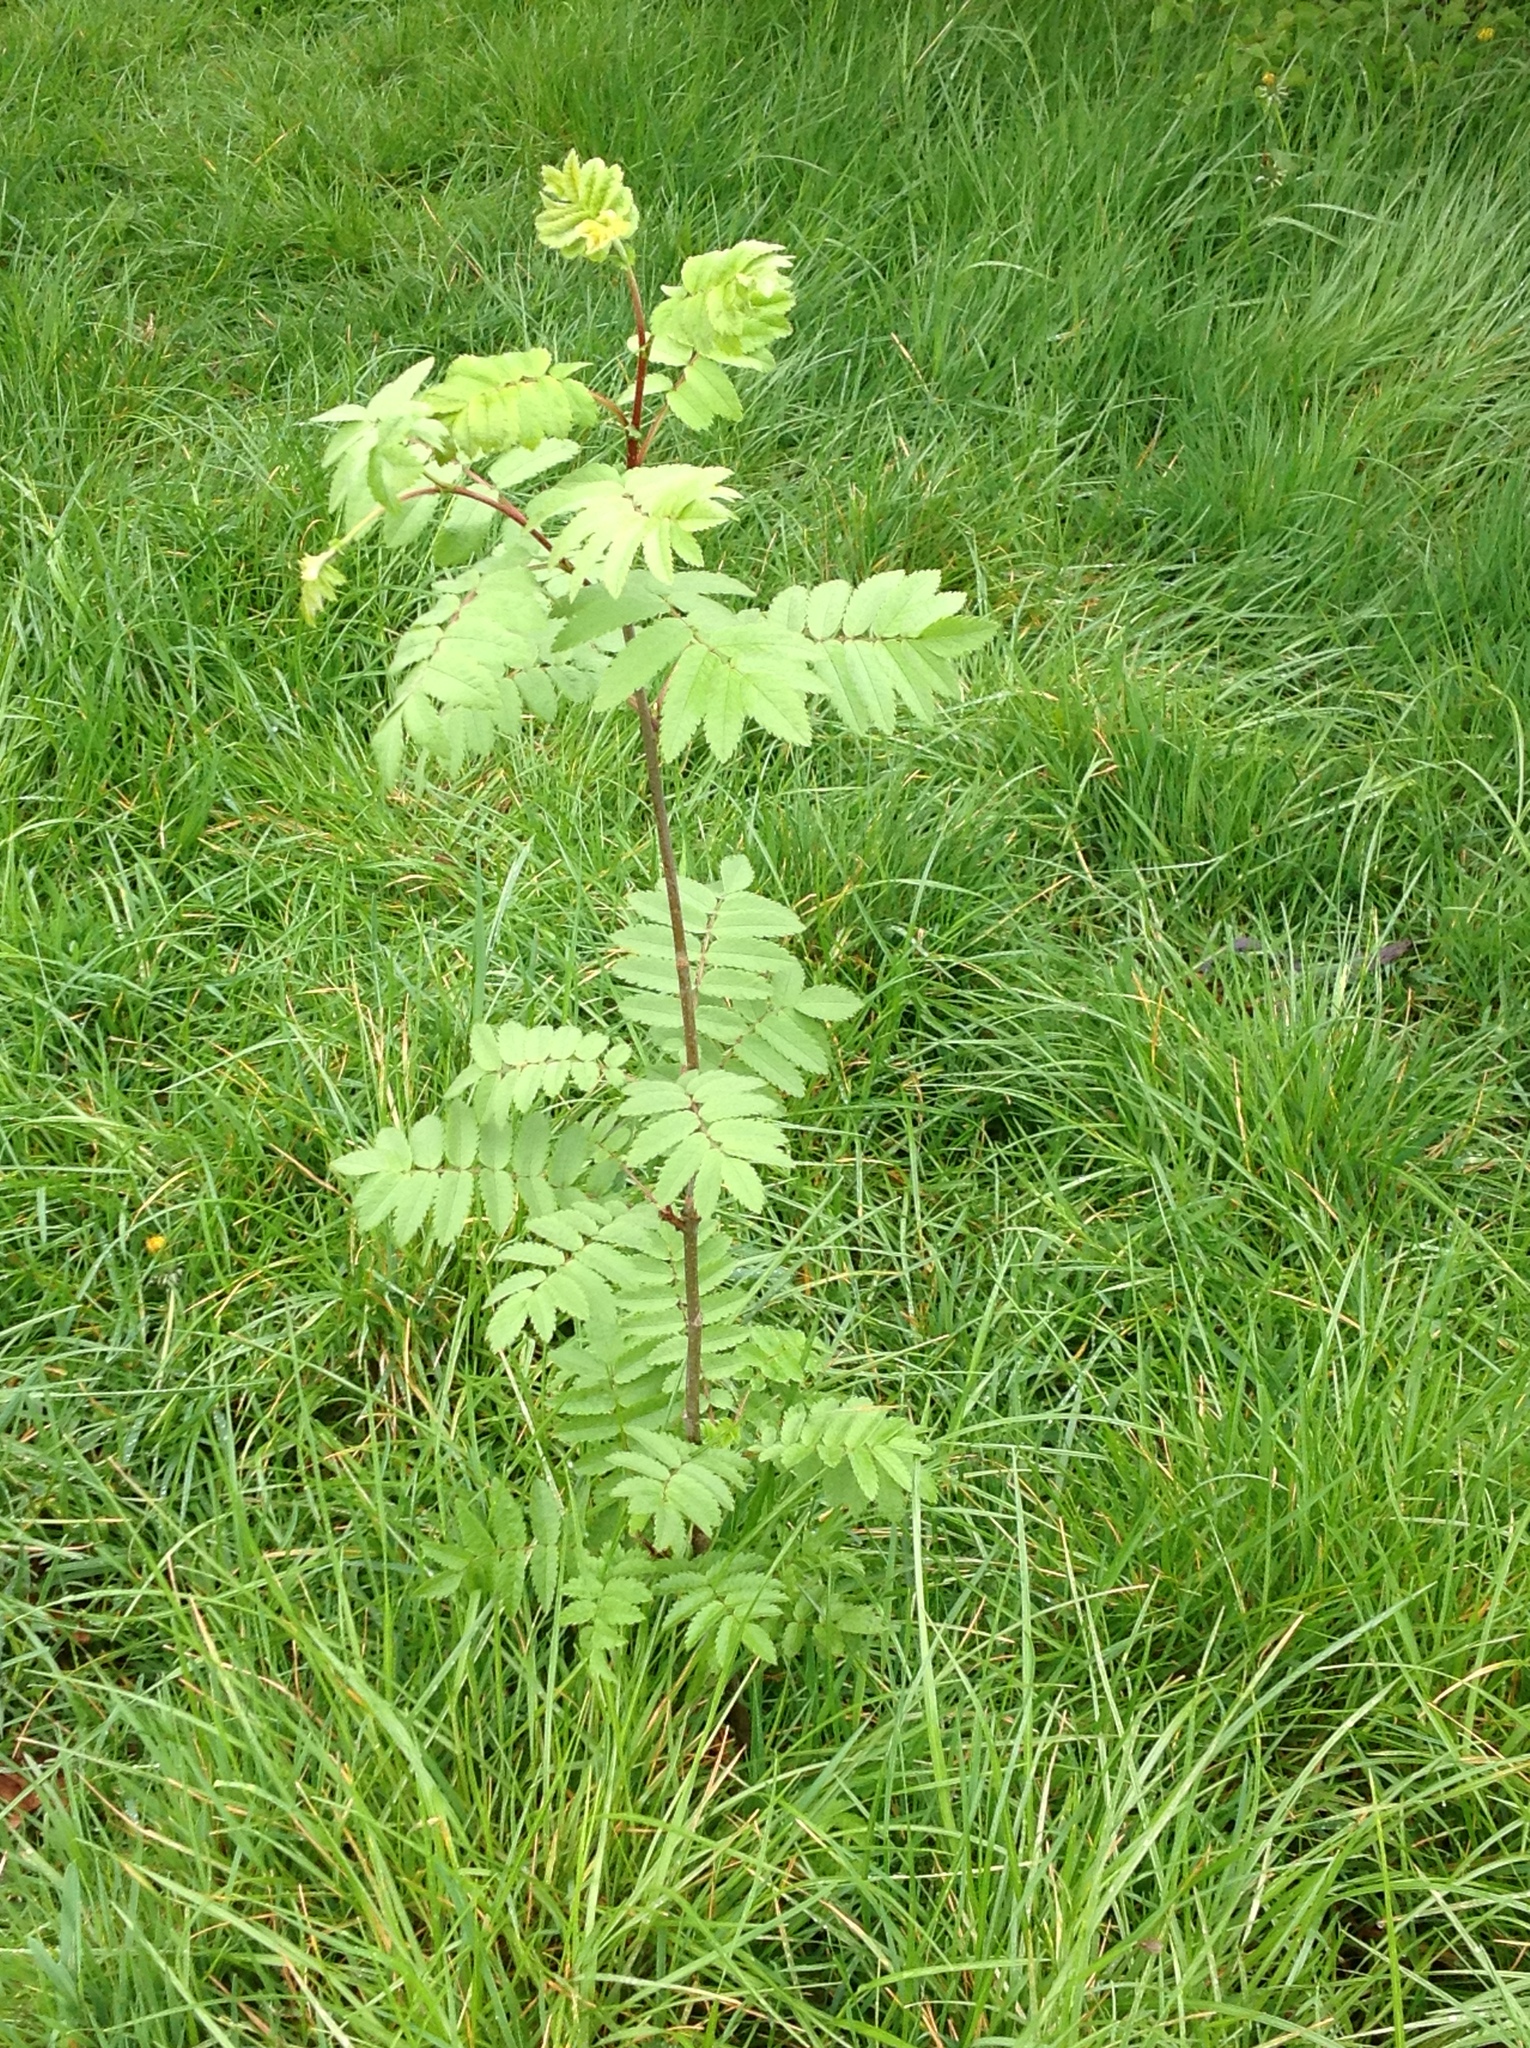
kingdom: Plantae
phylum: Tracheophyta
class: Magnoliopsida
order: Rosales
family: Rosaceae
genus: Sorbus
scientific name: Sorbus aucuparia
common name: Rowan
